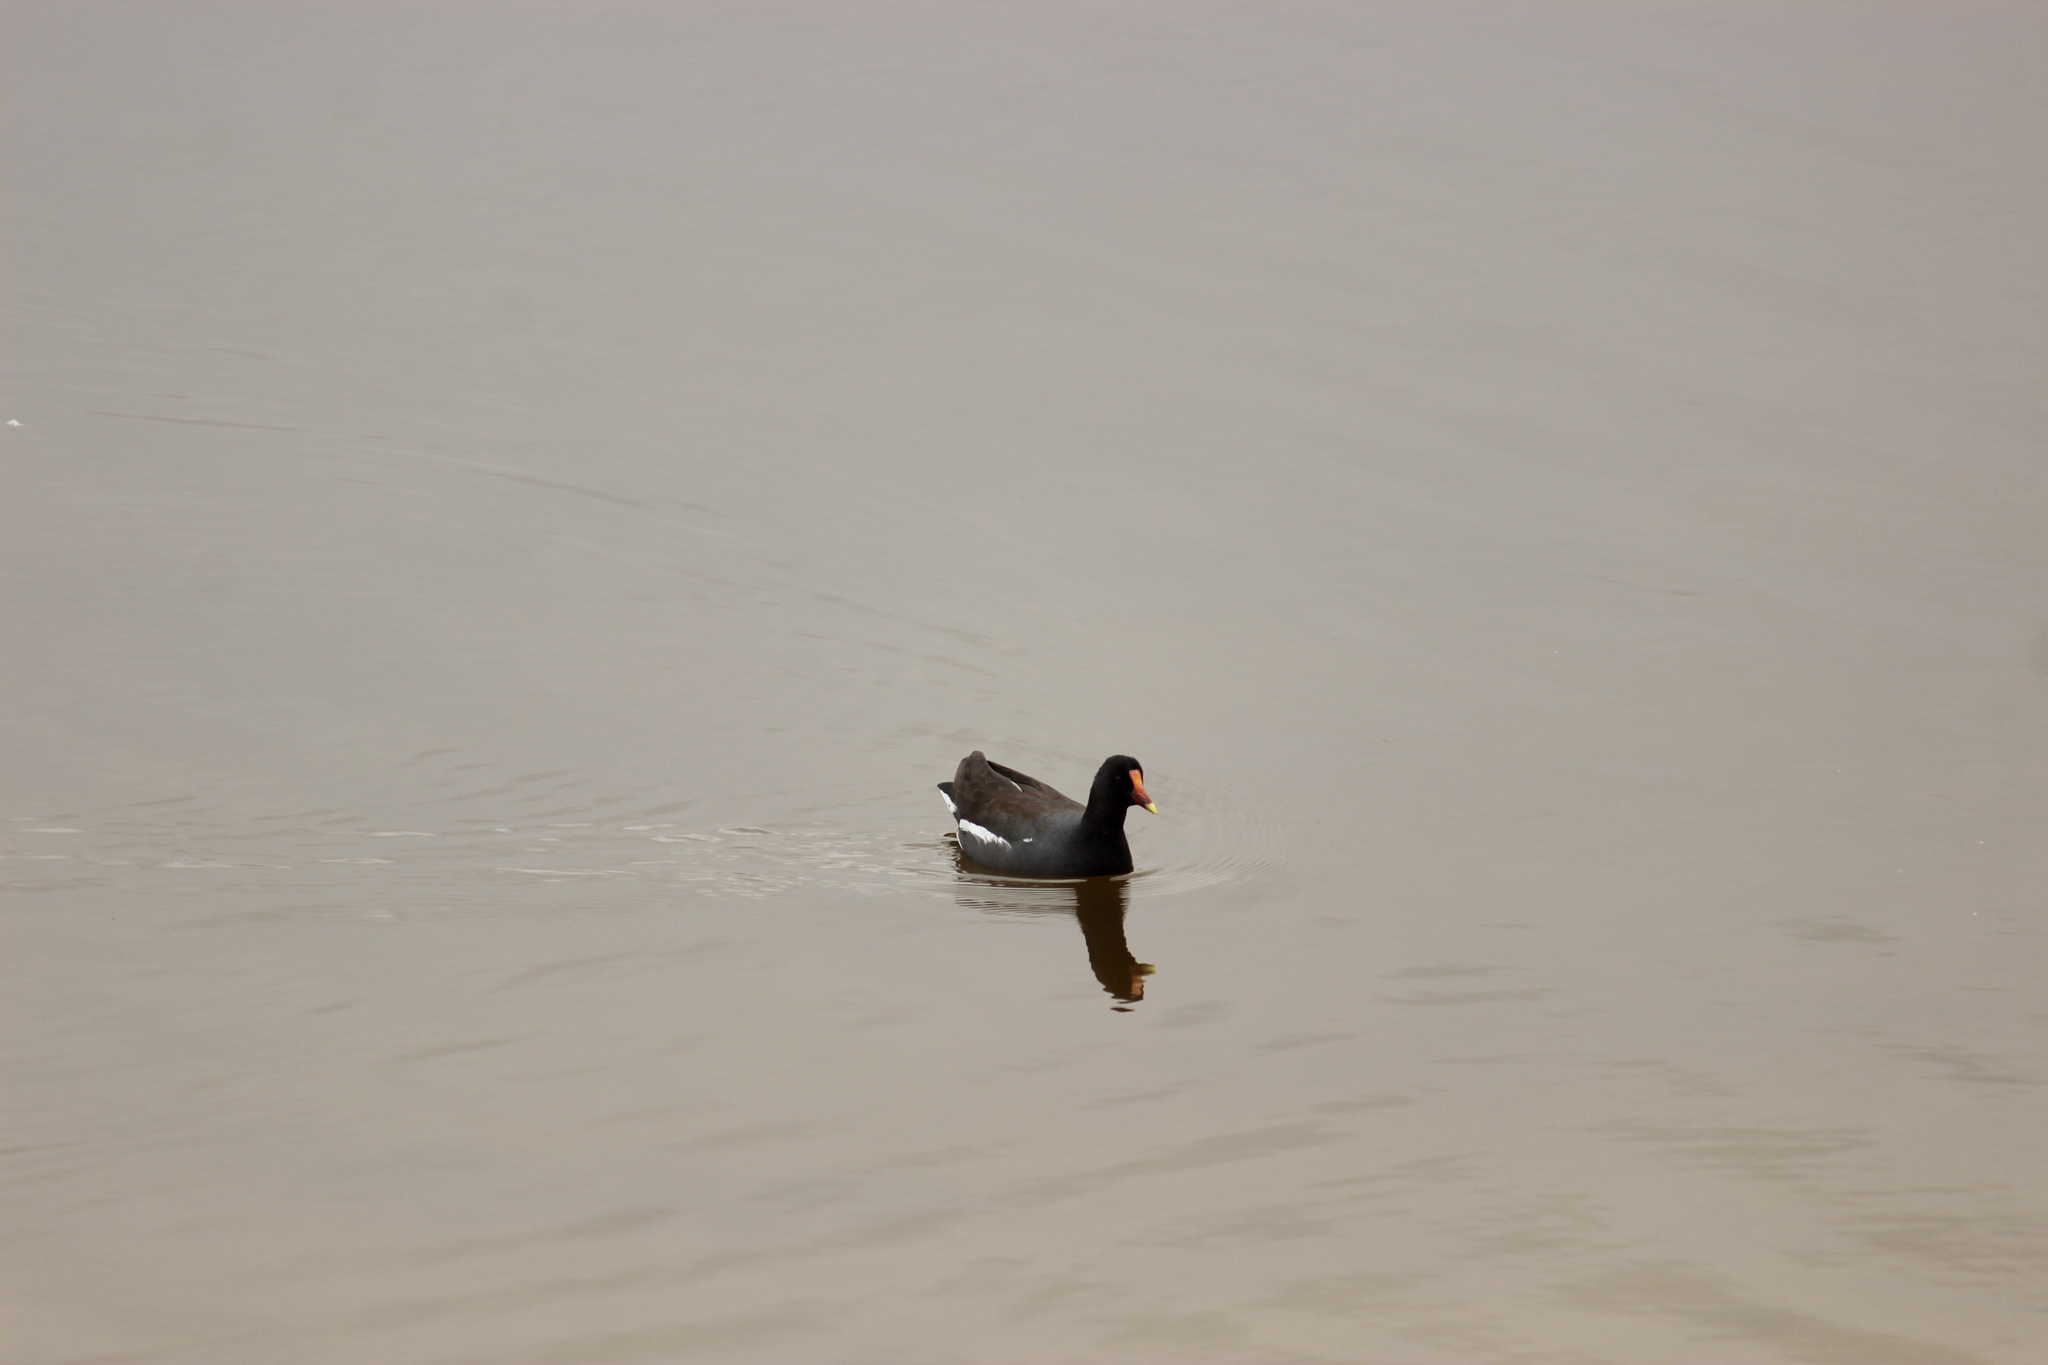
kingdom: Animalia
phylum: Chordata
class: Aves
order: Gruiformes
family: Rallidae
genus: Gallinula
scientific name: Gallinula chloropus
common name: Common moorhen
